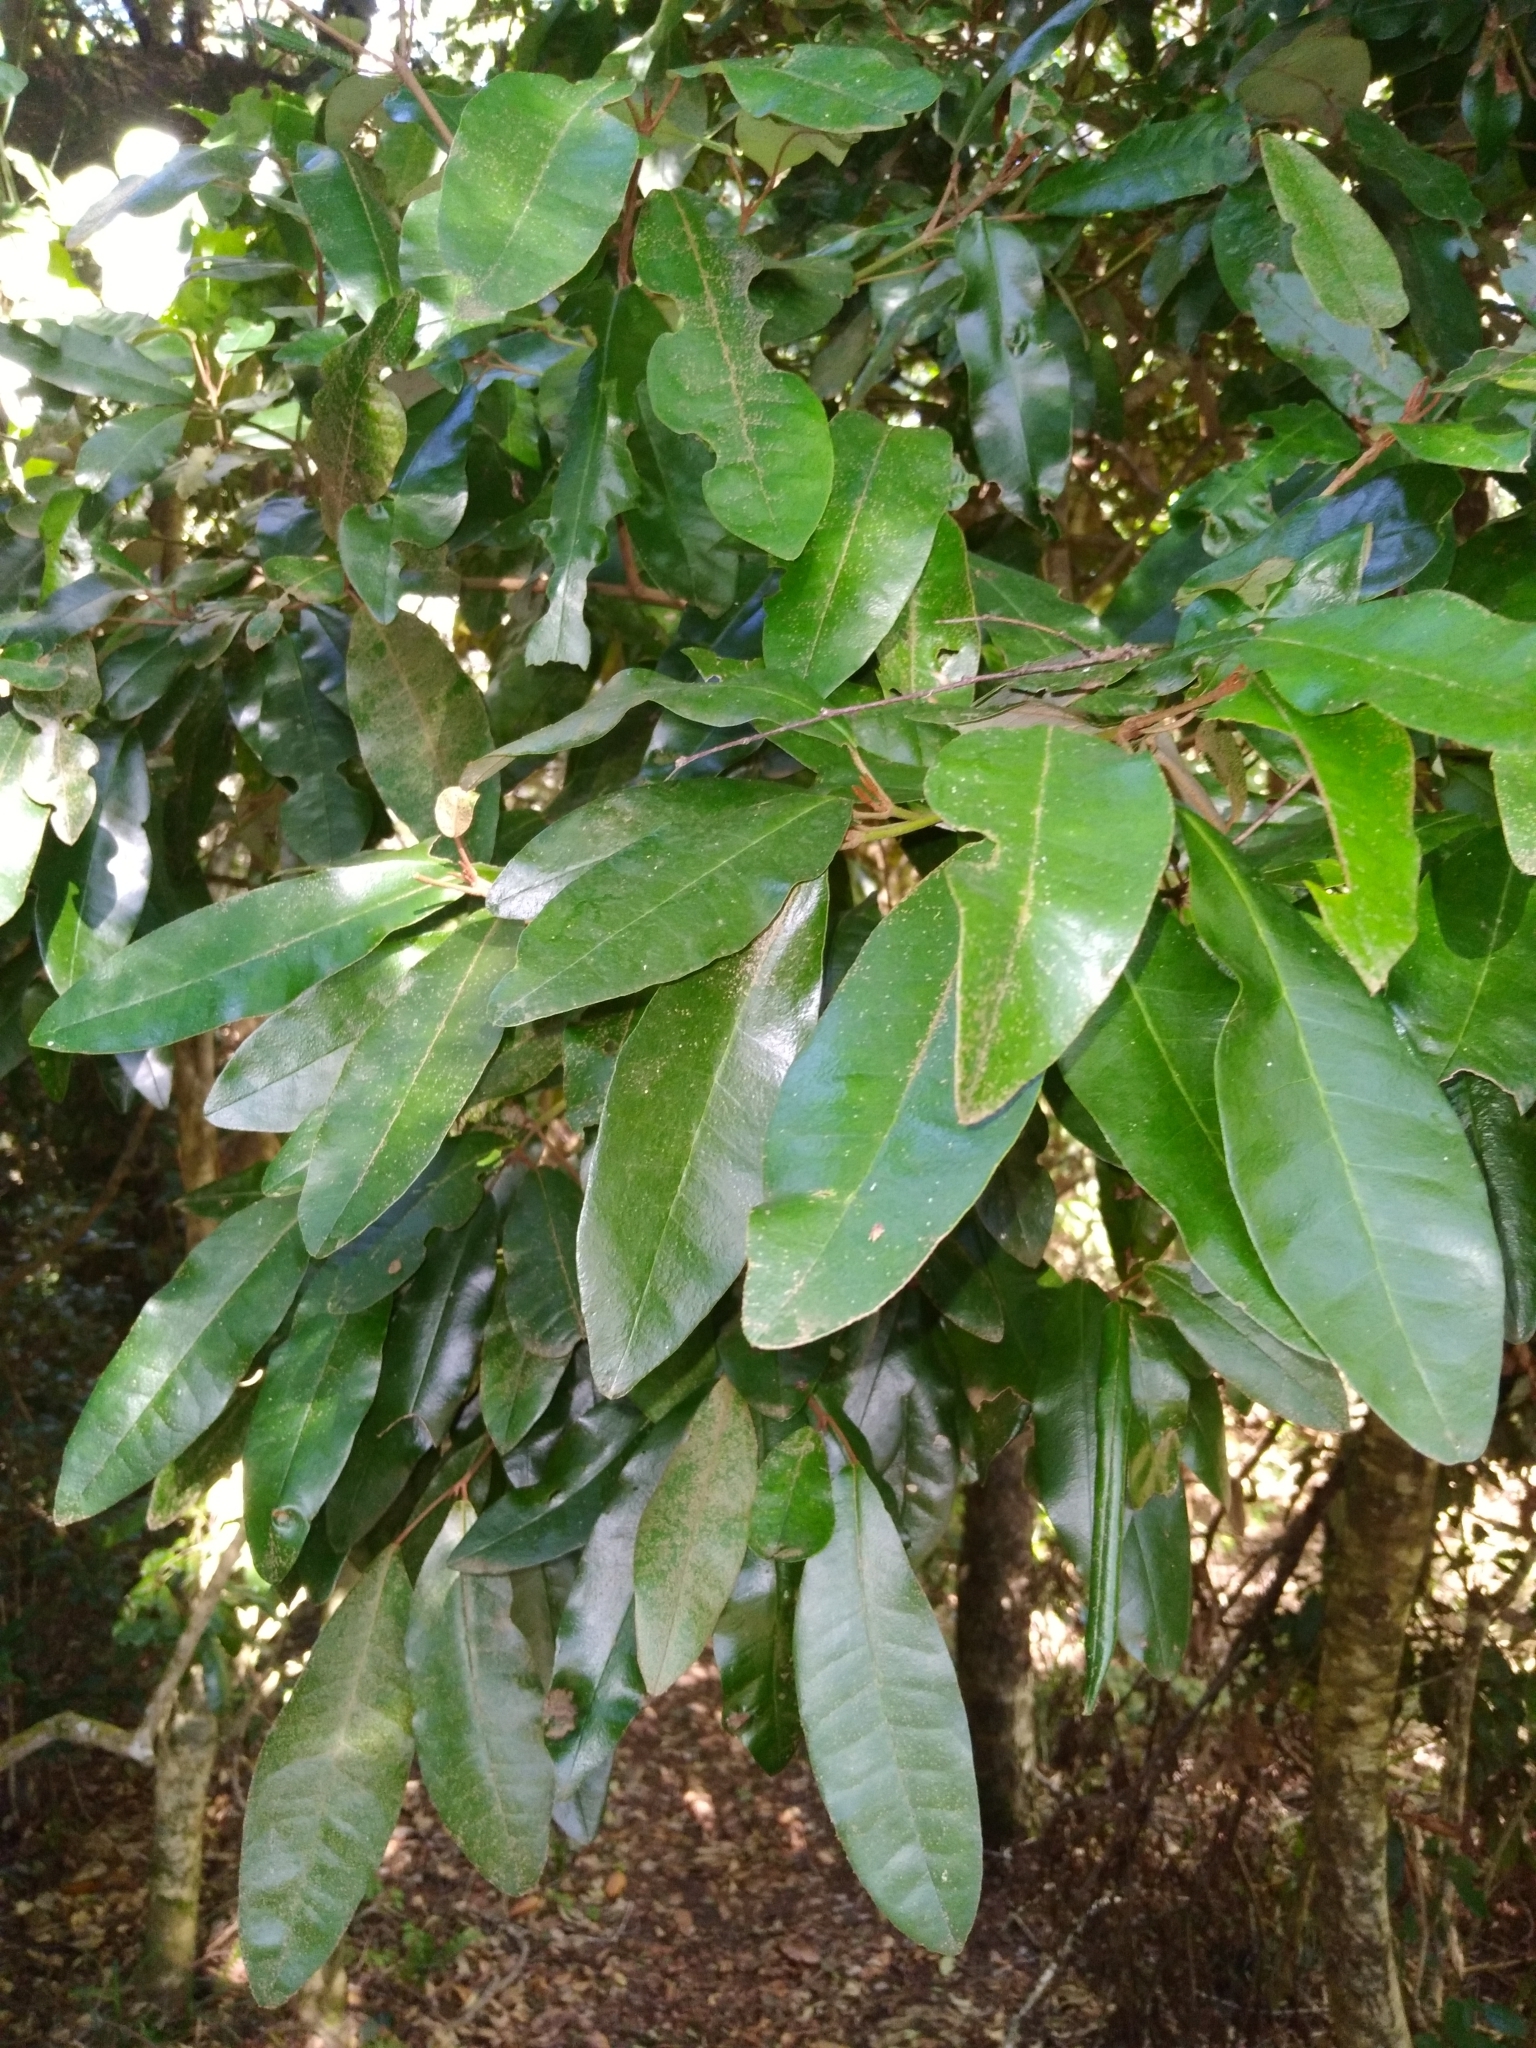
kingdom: Plantae
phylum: Tracheophyta
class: Magnoliopsida
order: Berberidopsidales
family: Aextoxicaceae
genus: Aextoxicon
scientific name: Aextoxicon punctatum
